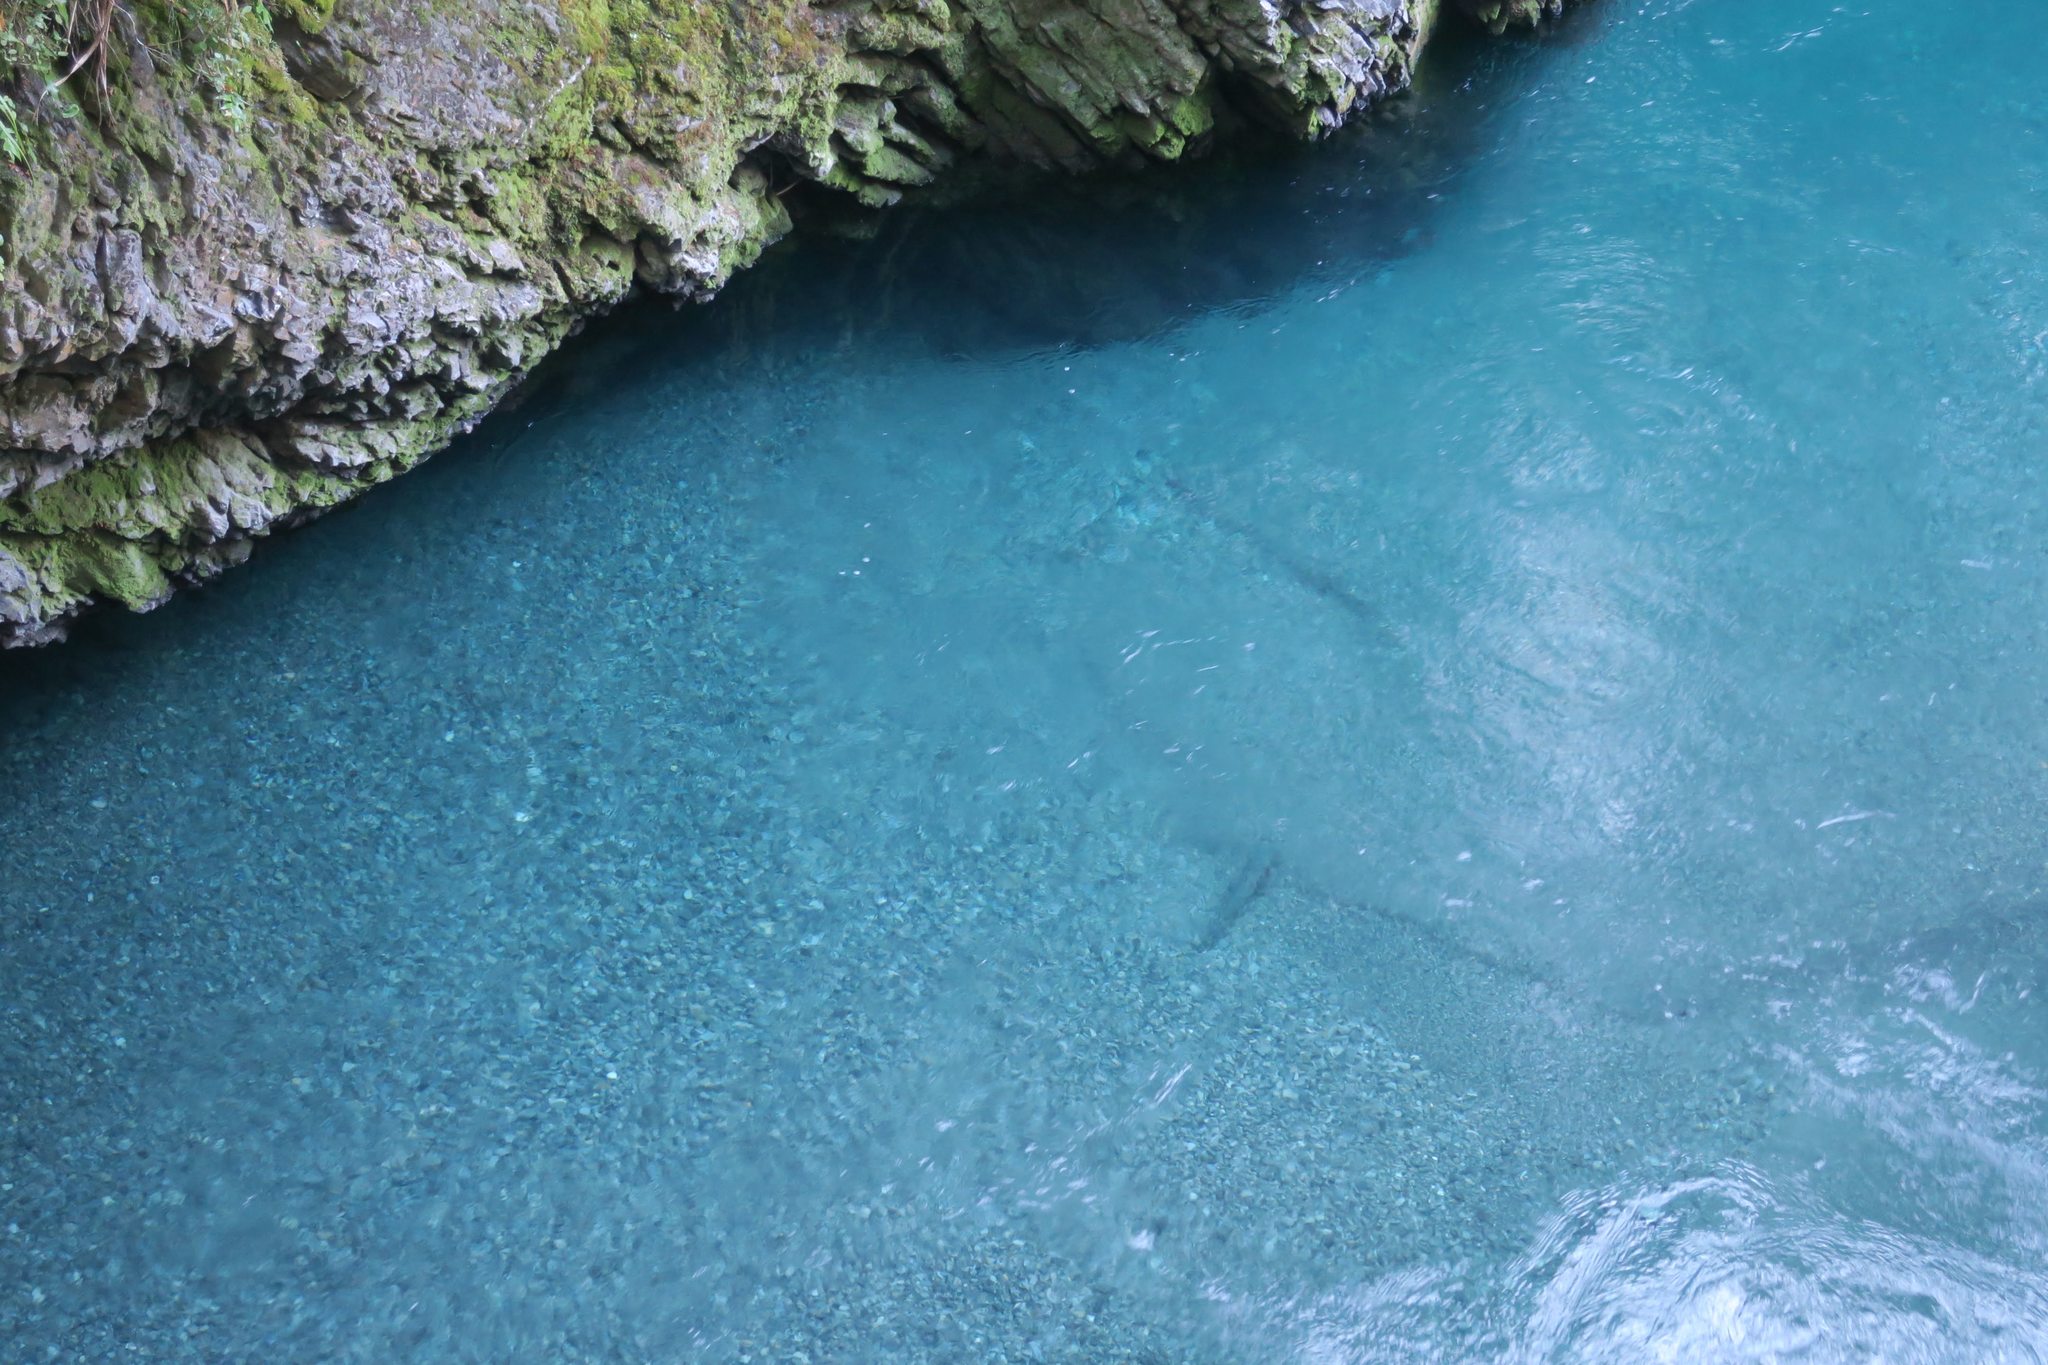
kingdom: Animalia
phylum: Chordata
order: Salmoniformes
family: Salmonidae
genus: Salmo
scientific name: Salmo trutta
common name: Brown trout
